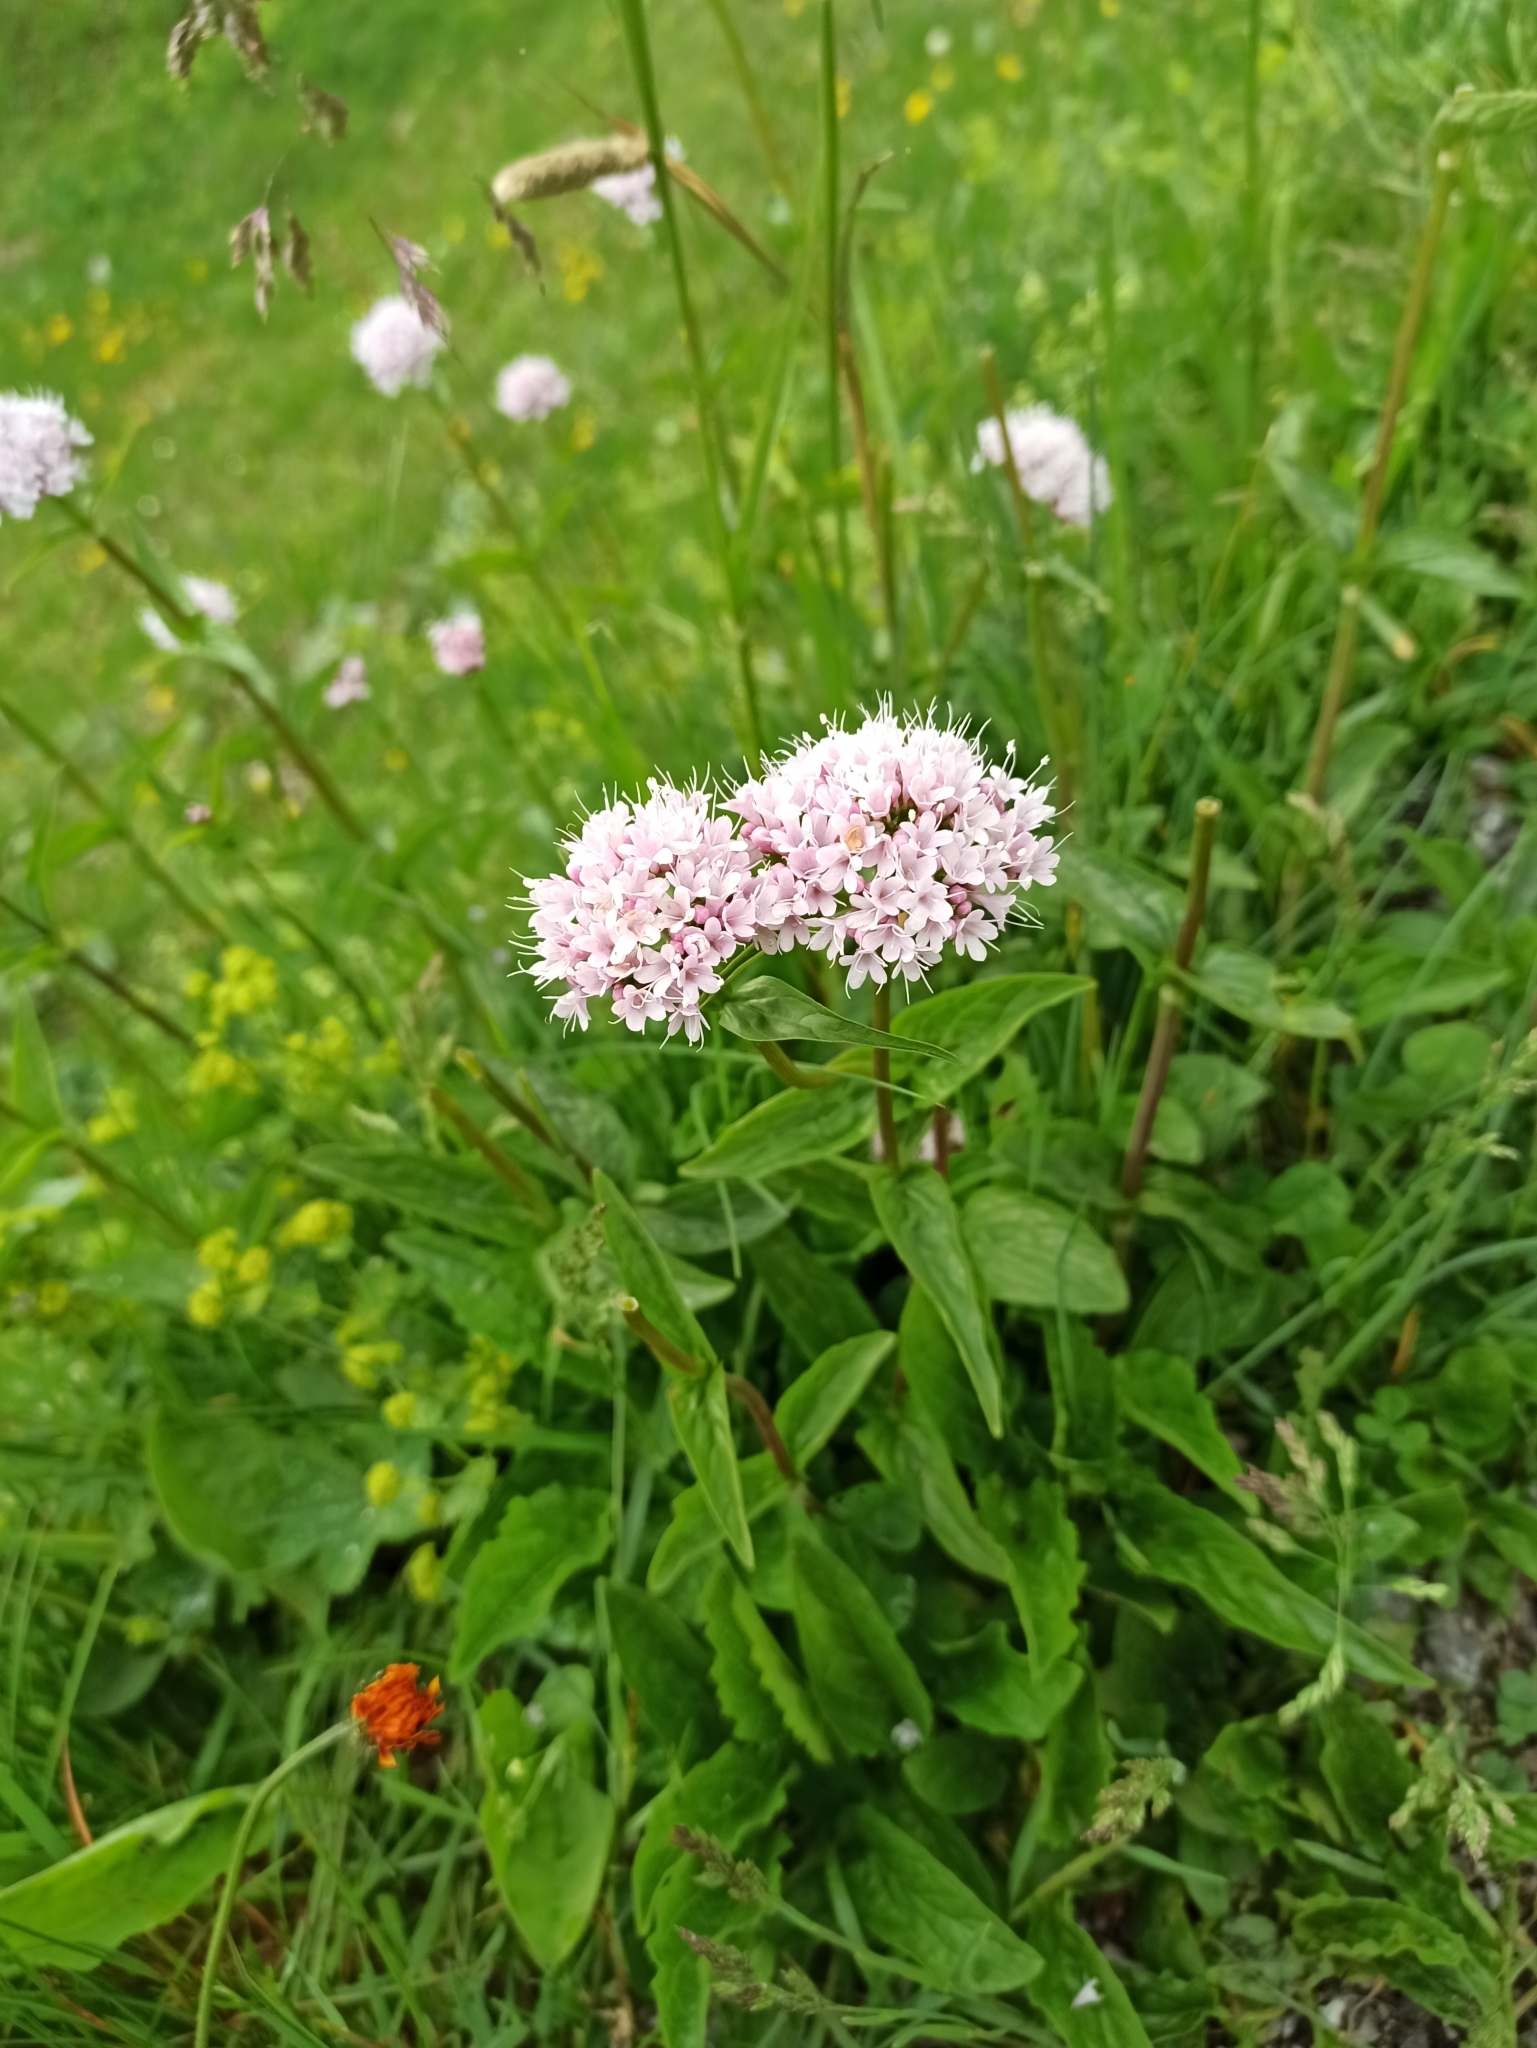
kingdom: Plantae
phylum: Tracheophyta
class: Magnoliopsida
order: Dipsacales
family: Caprifoliaceae
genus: Valeriana
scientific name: Valeriana montana
